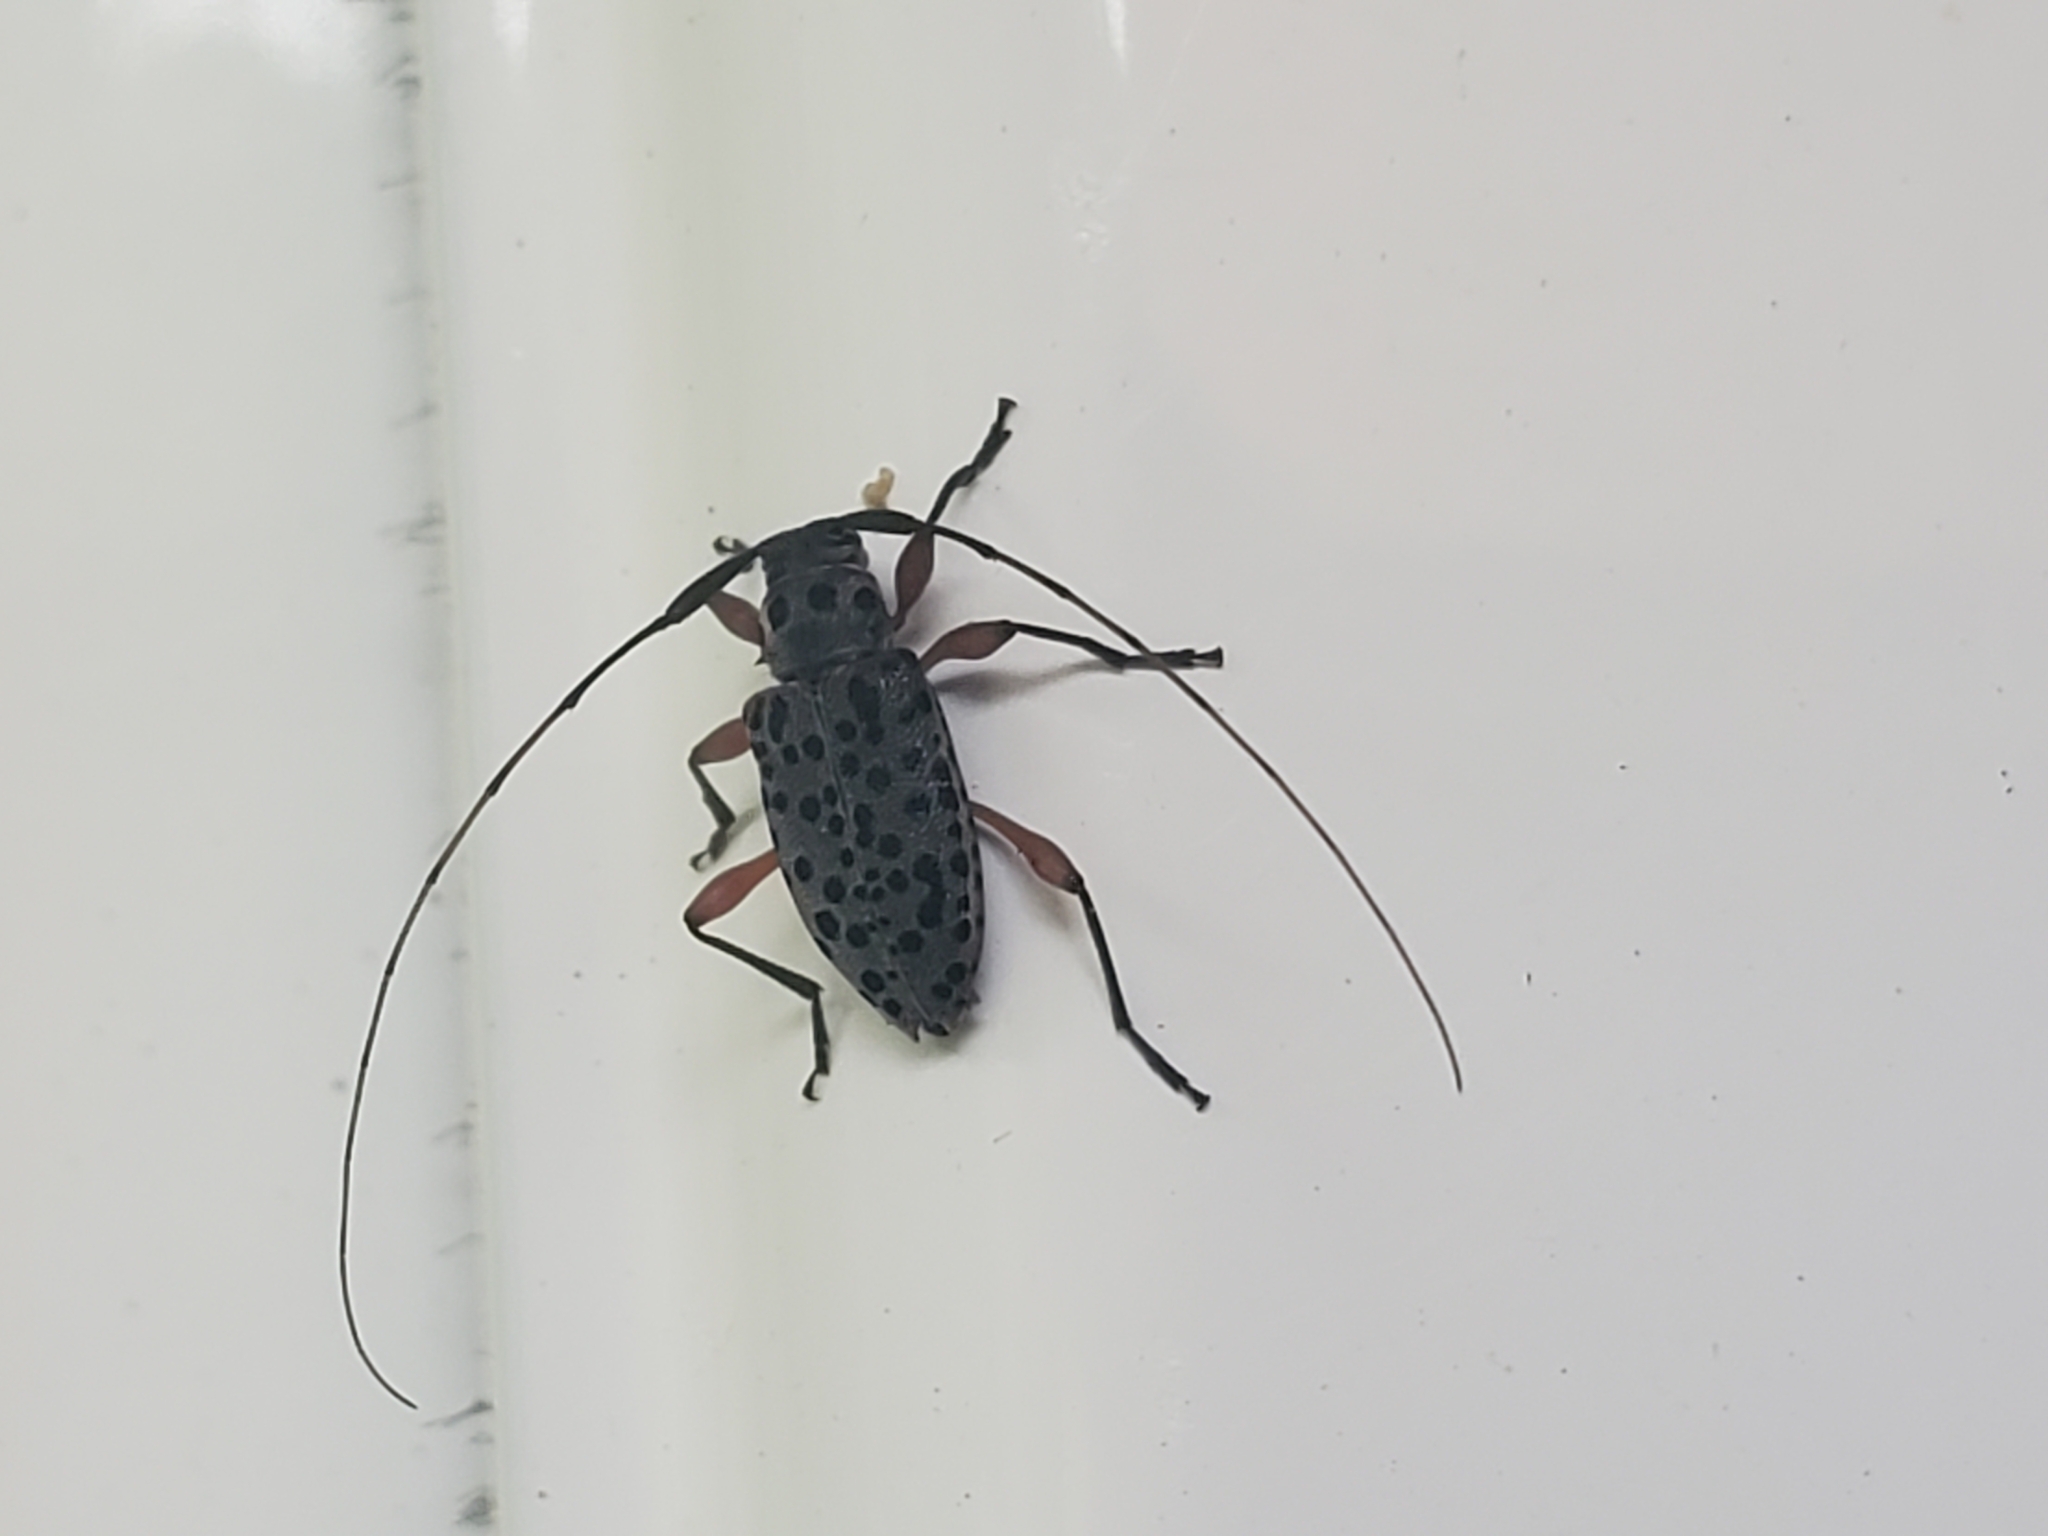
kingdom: Animalia
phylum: Arthropoda
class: Insecta
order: Coleoptera
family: Cerambycidae
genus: Hyperplatys
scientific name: Hyperplatys aspersa
